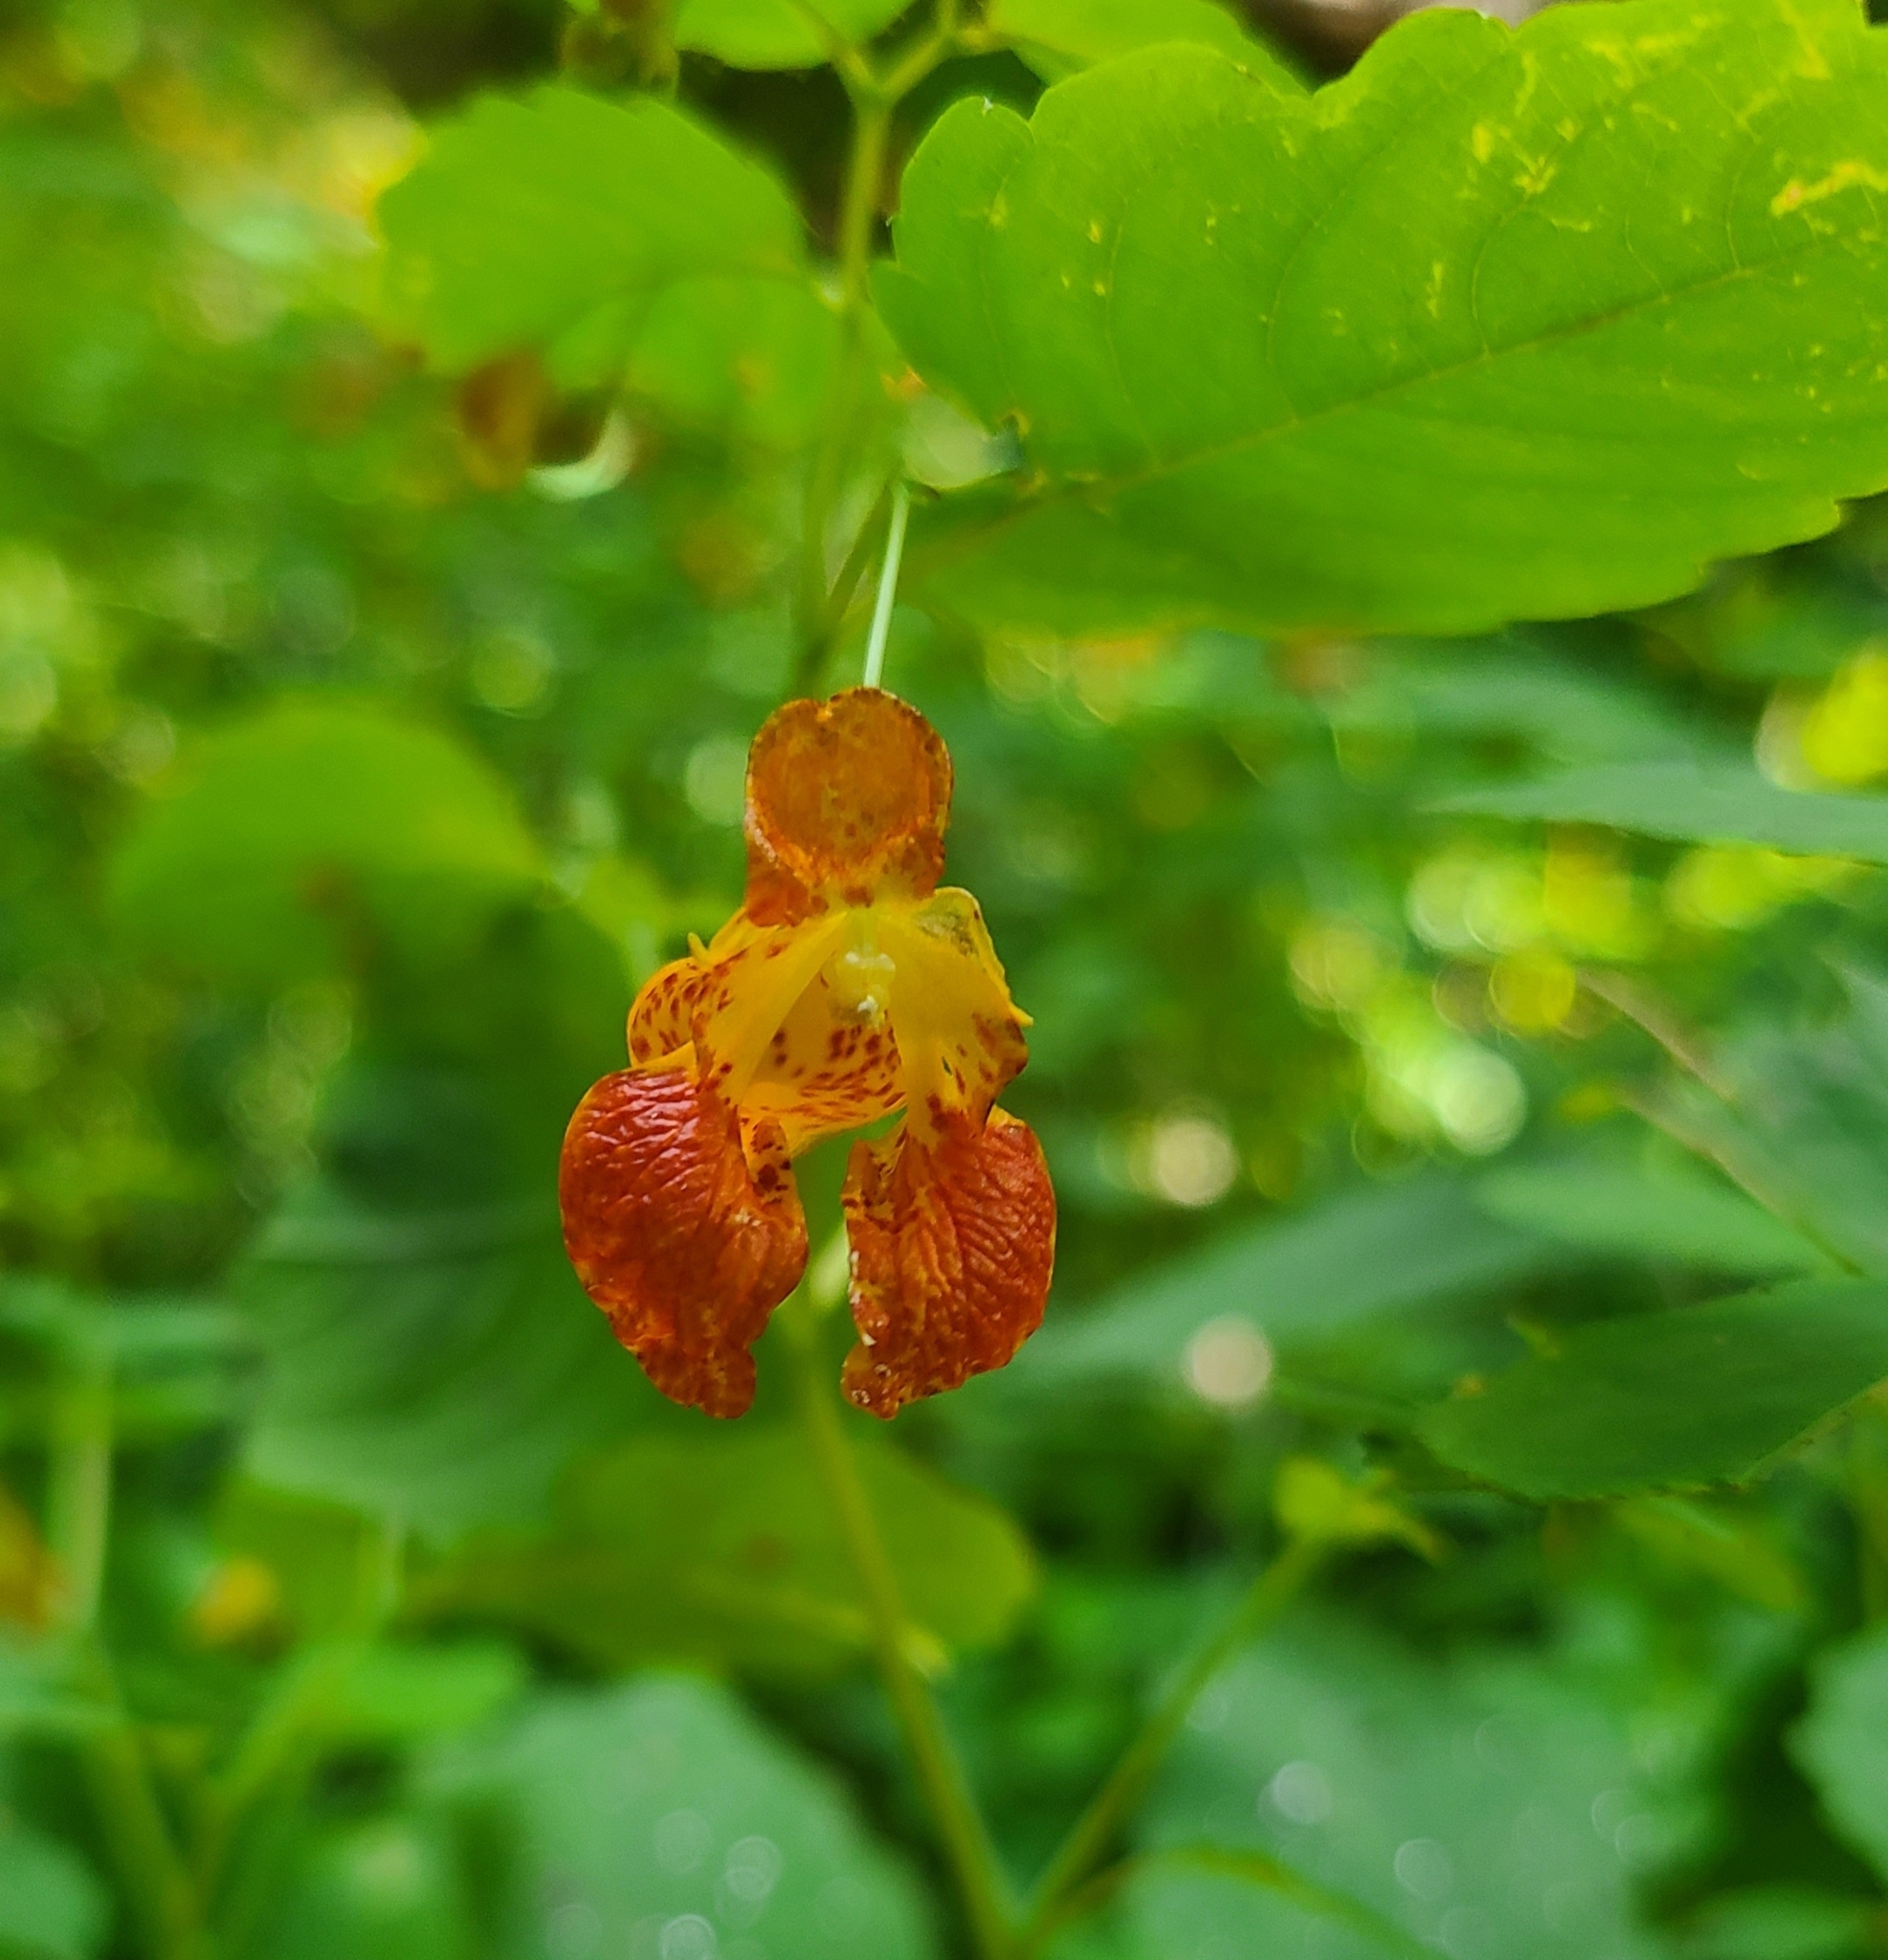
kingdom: Plantae
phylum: Tracheophyta
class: Magnoliopsida
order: Ericales
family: Balsaminaceae
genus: Impatiens
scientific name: Impatiens capensis
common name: Orange balsam
